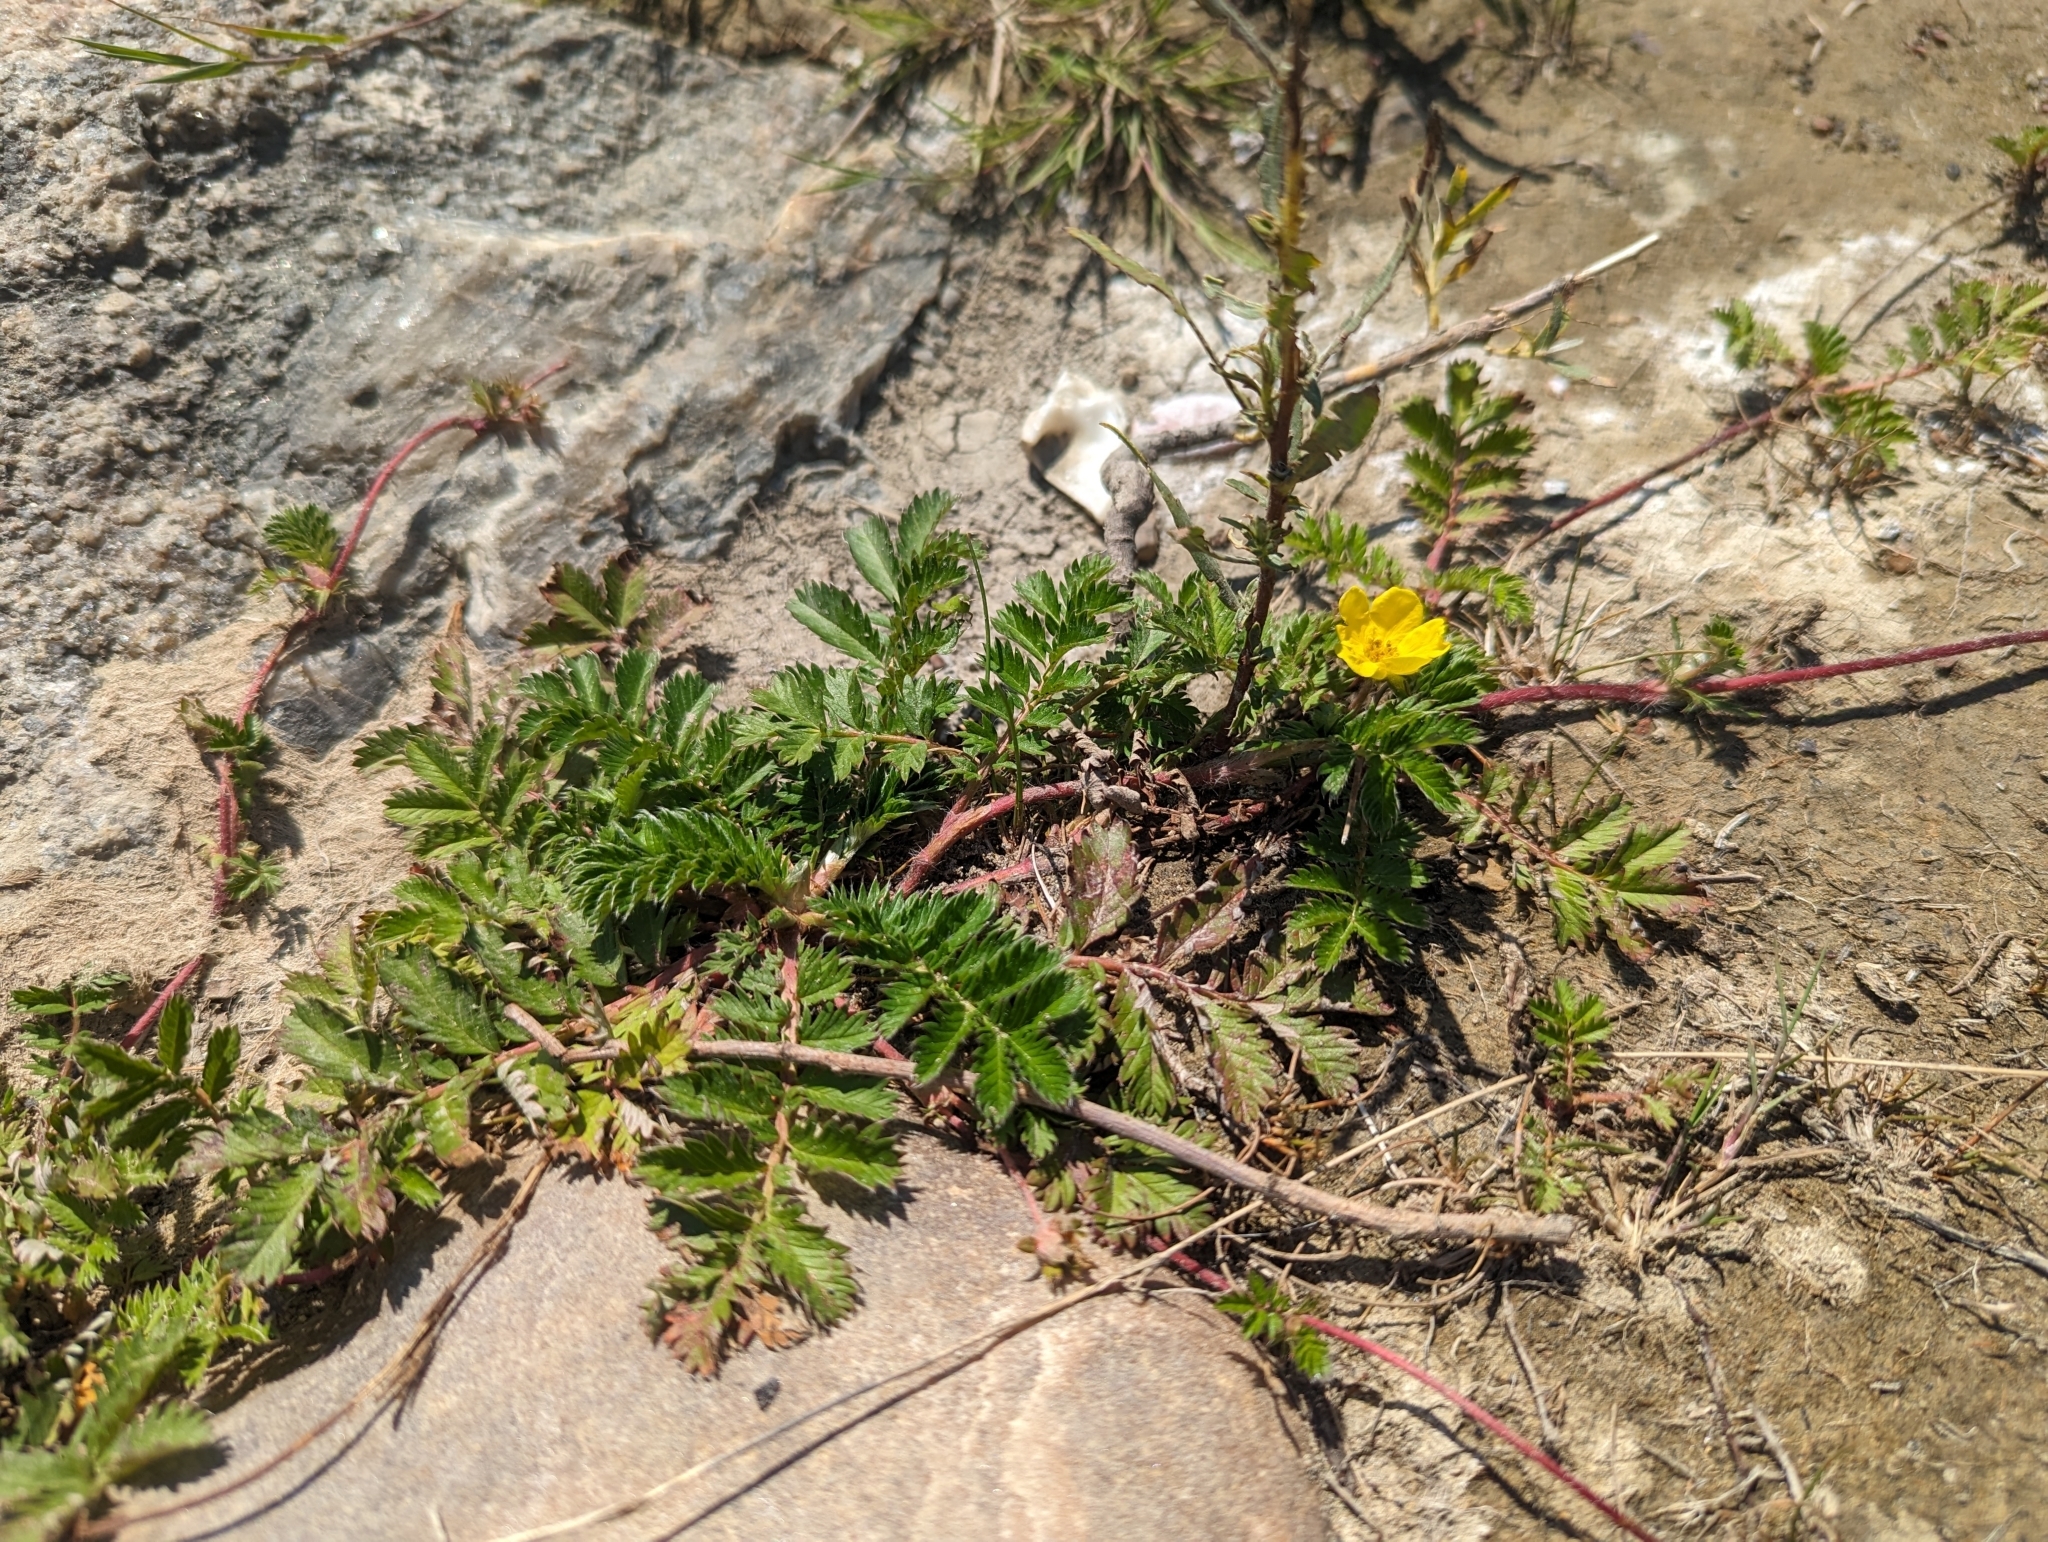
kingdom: Plantae
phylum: Tracheophyta
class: Magnoliopsida
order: Rosales
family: Rosaceae
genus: Argentina
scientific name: Argentina anserina
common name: Common silverweed
